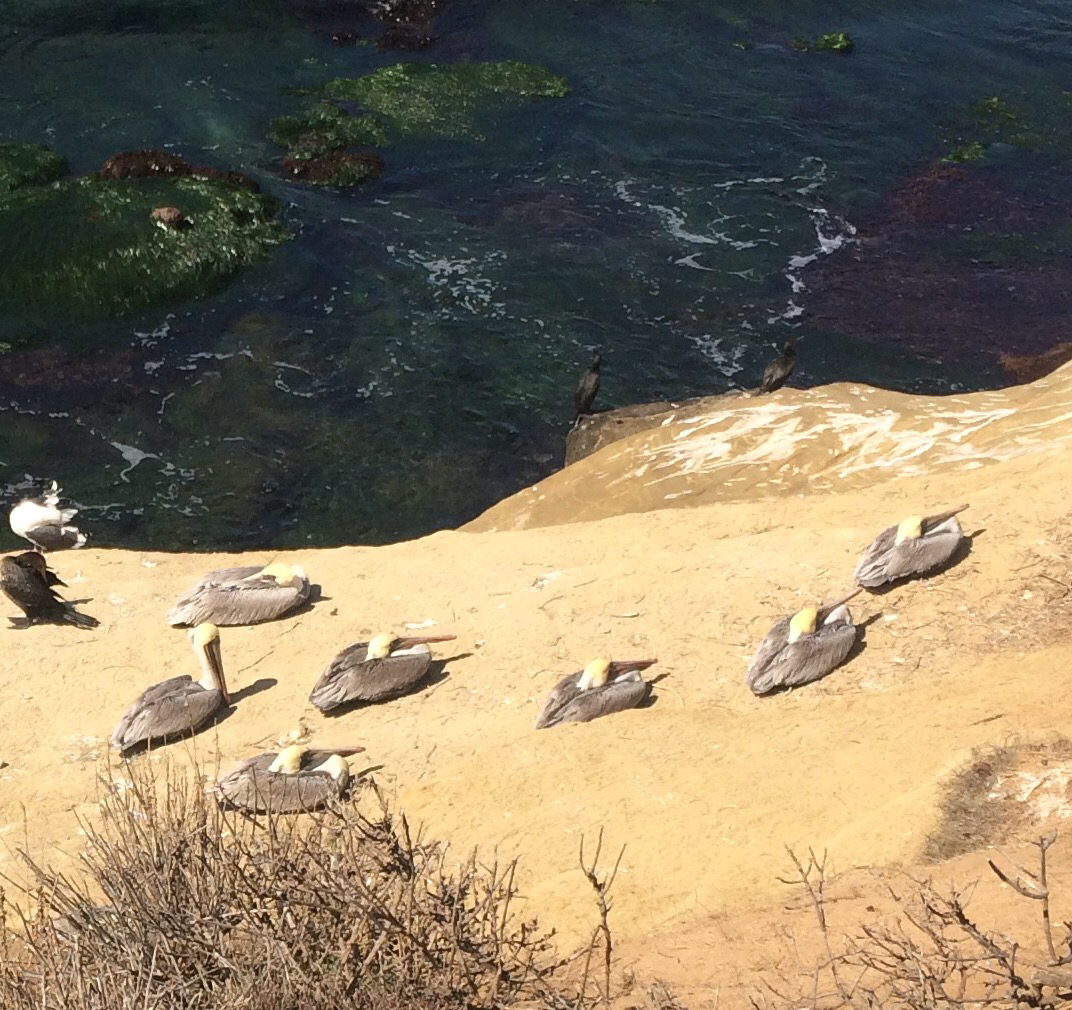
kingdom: Animalia
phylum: Chordata
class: Aves
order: Pelecaniformes
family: Pelecanidae
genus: Pelecanus
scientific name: Pelecanus occidentalis
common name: Brown pelican
